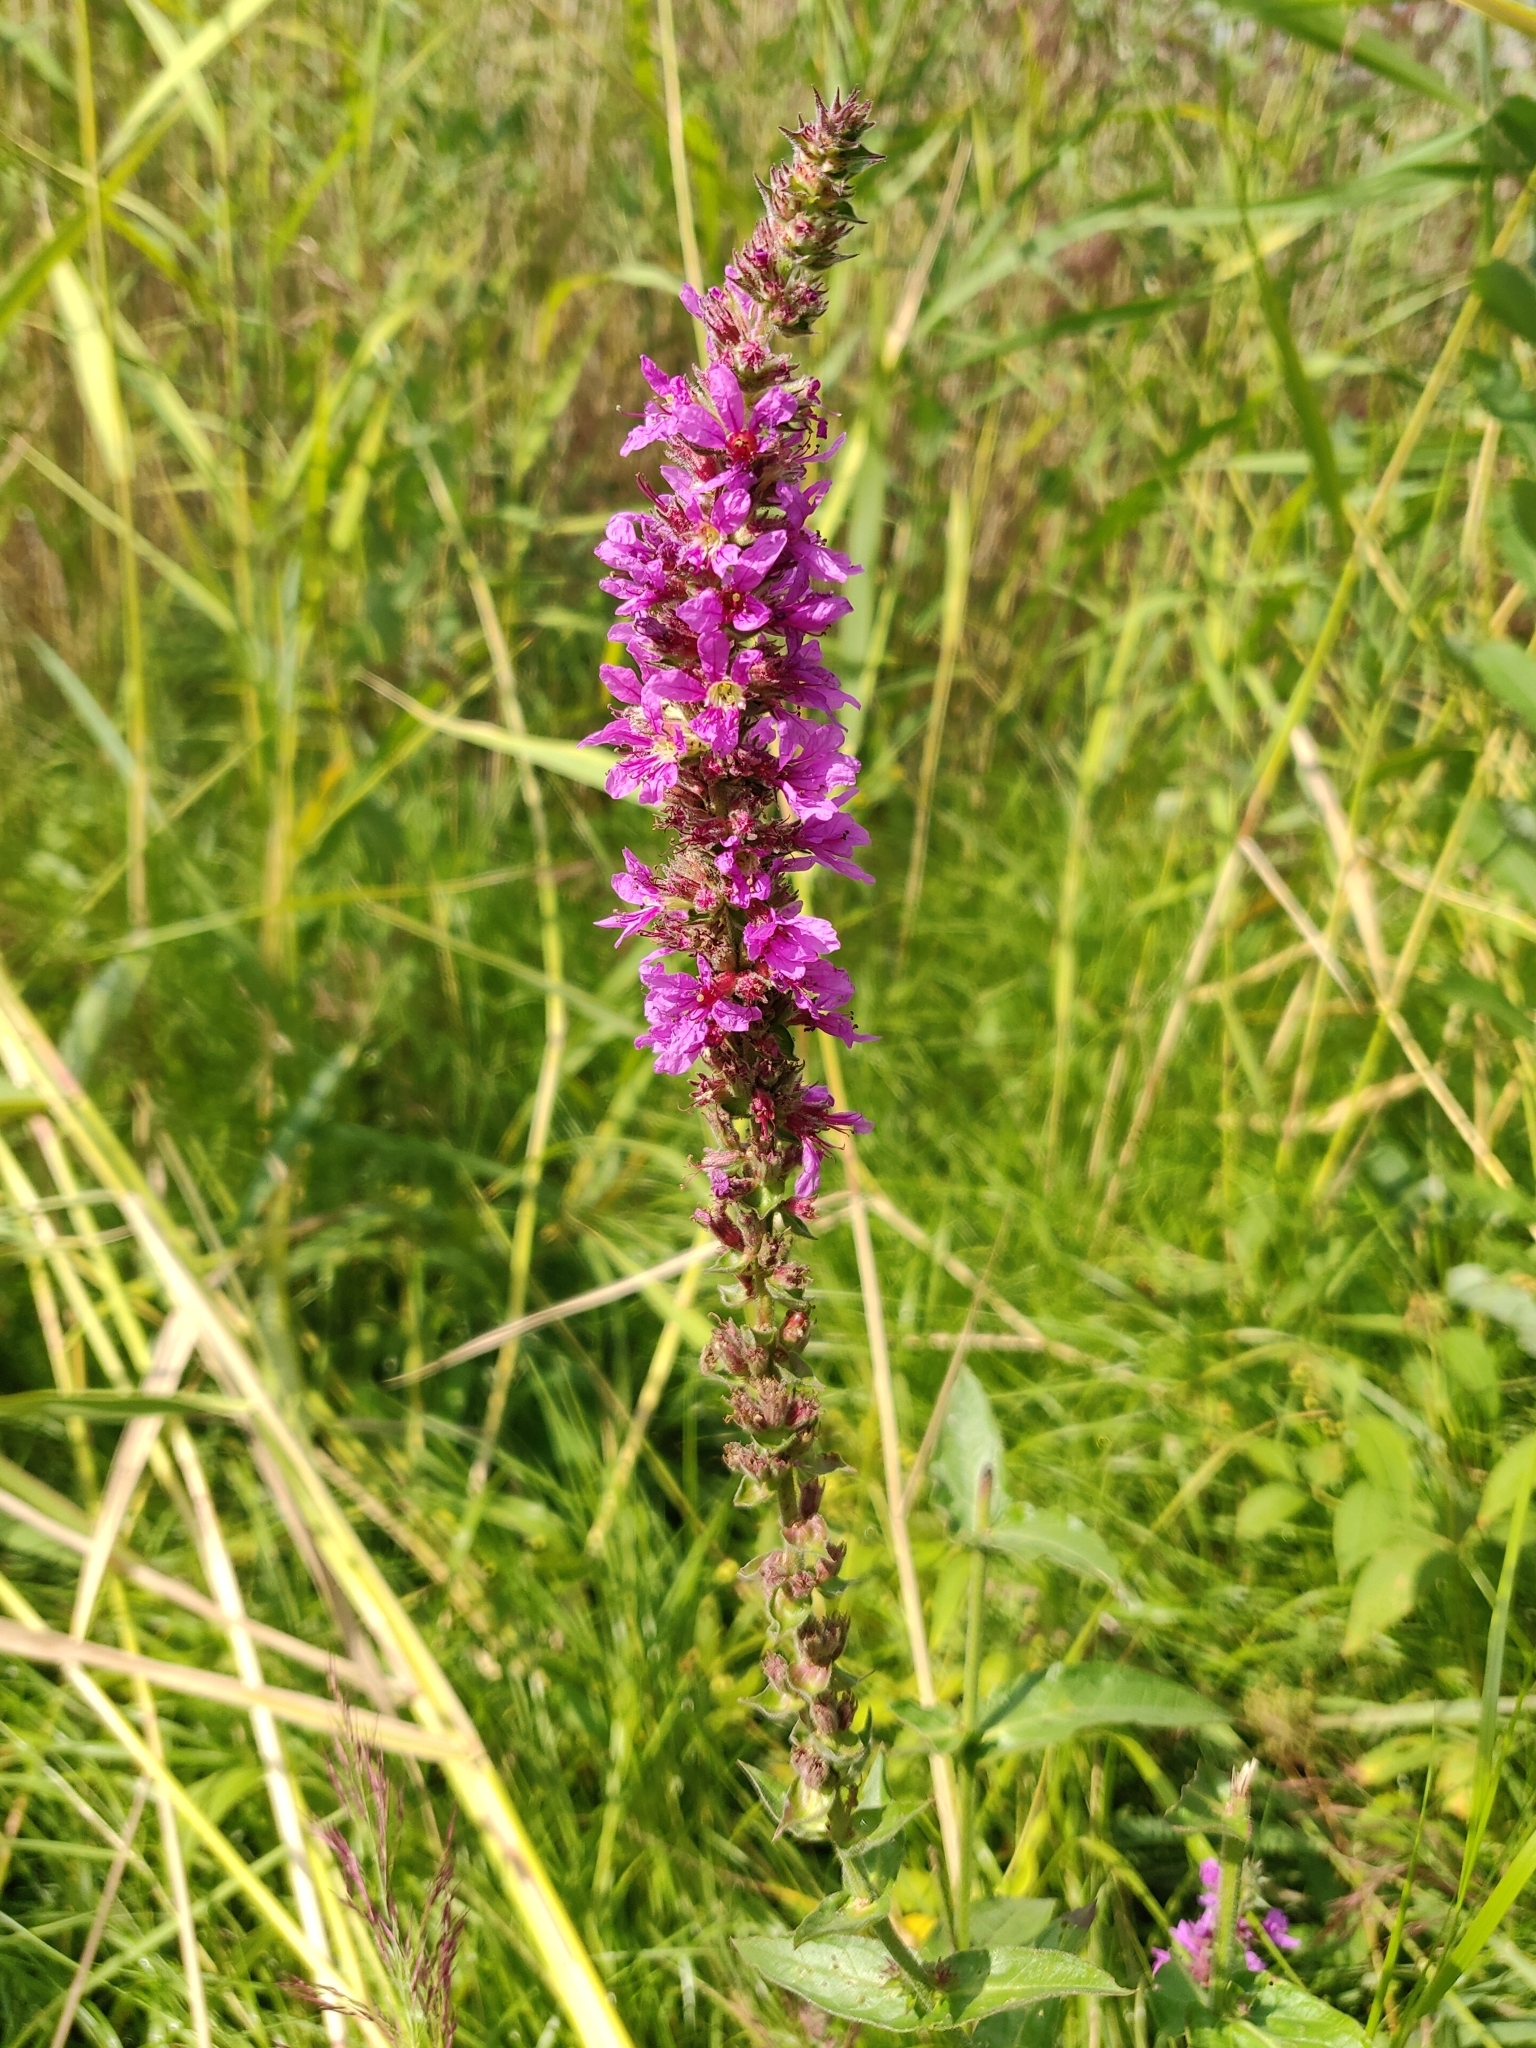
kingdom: Plantae
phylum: Tracheophyta
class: Magnoliopsida
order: Myrtales
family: Lythraceae
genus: Lythrum
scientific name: Lythrum salicaria
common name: Purple loosestrife
